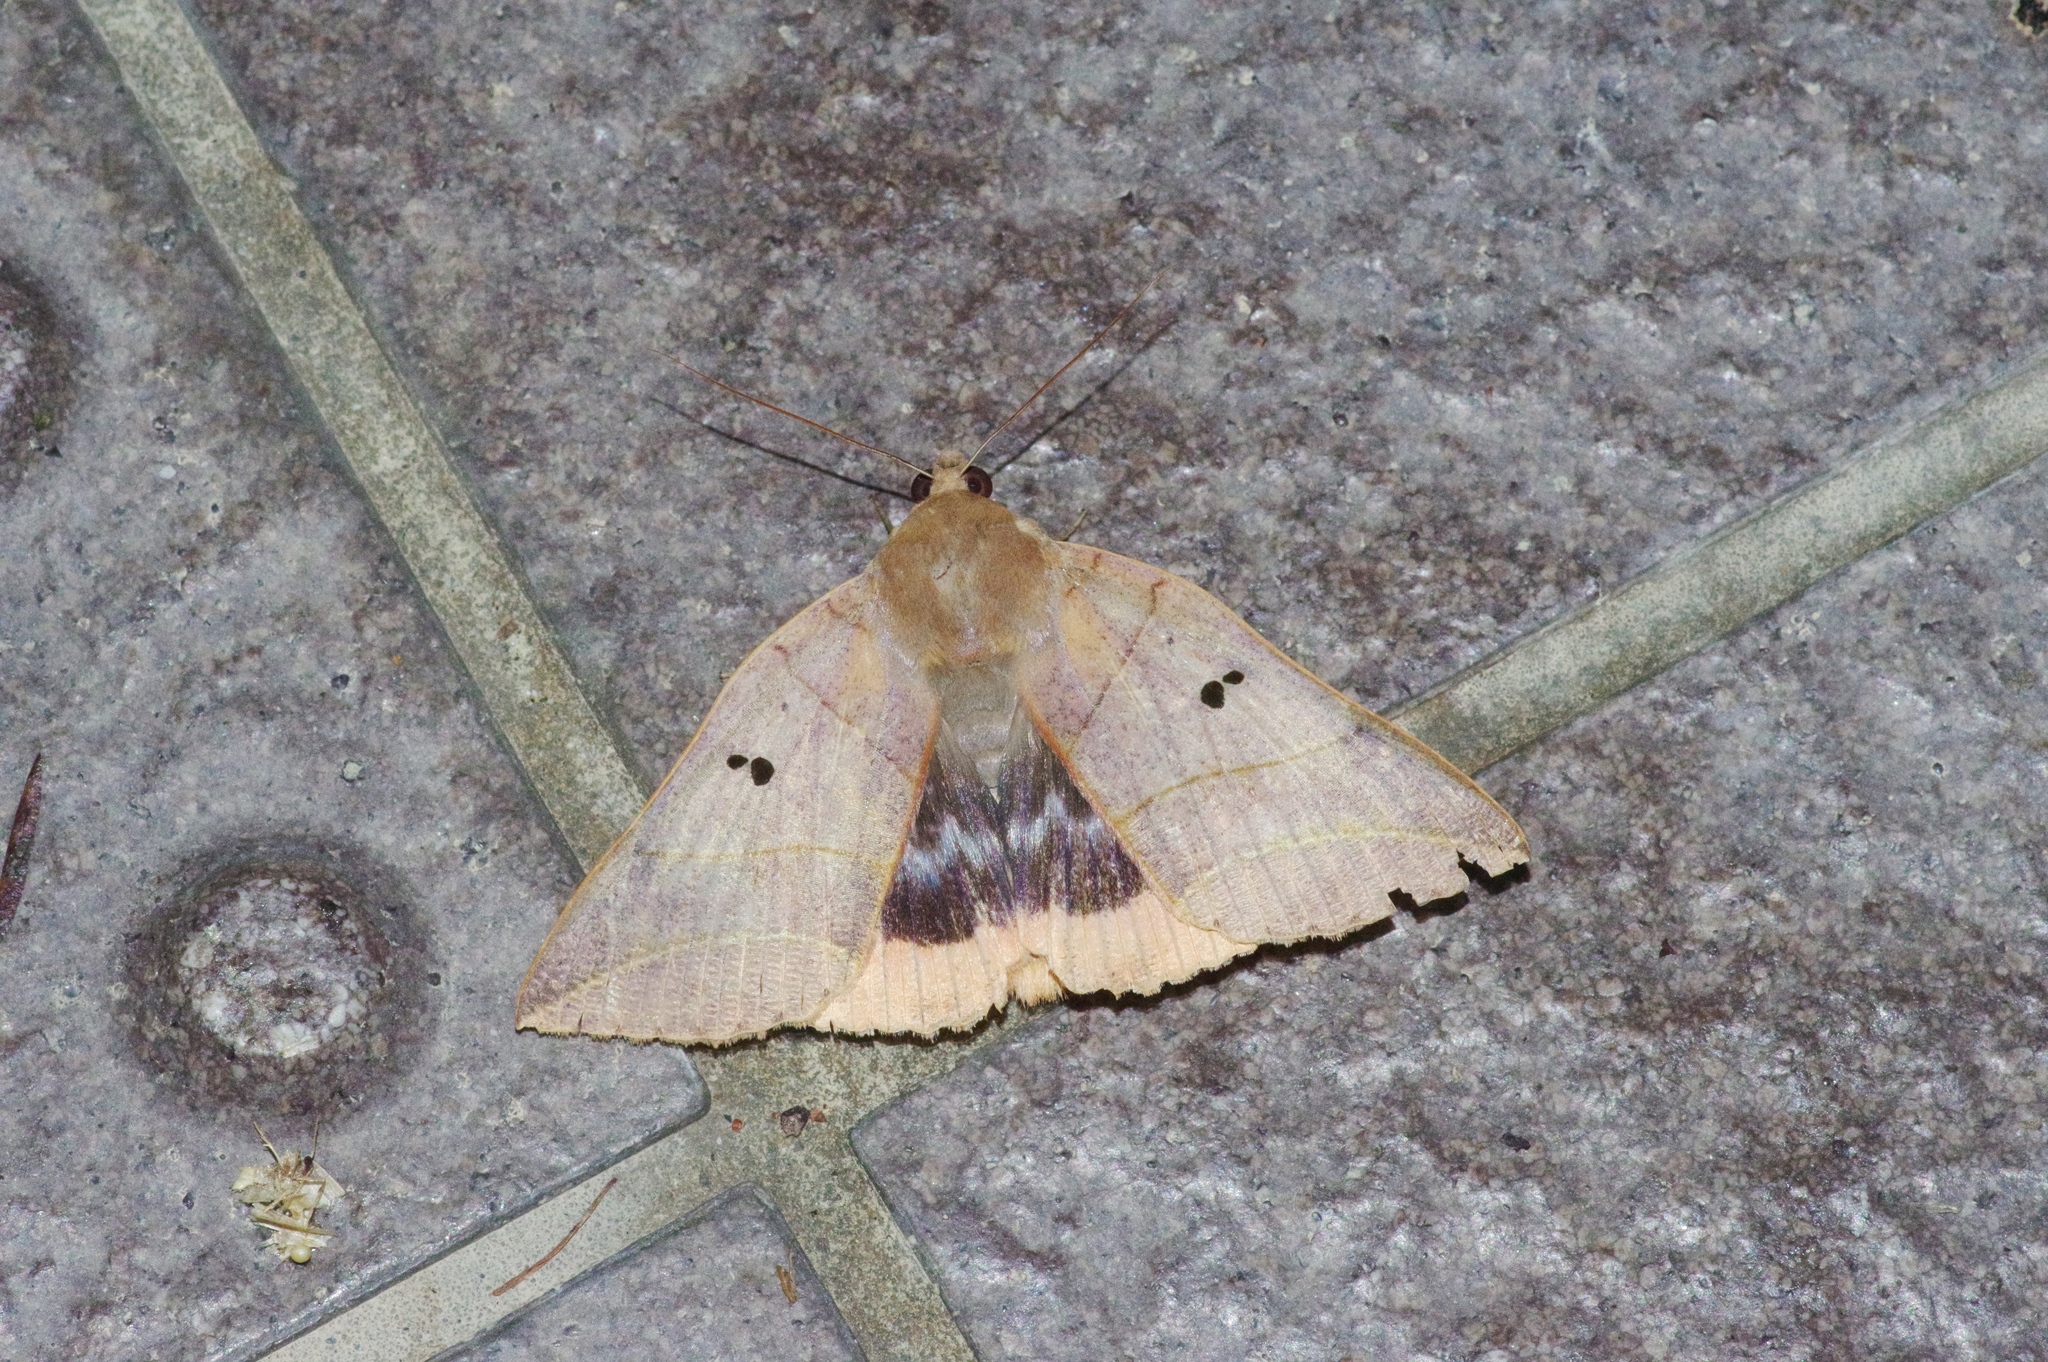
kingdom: Animalia
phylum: Arthropoda
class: Insecta
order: Lepidoptera
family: Erebidae
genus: Thyas
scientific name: Thyas juno
